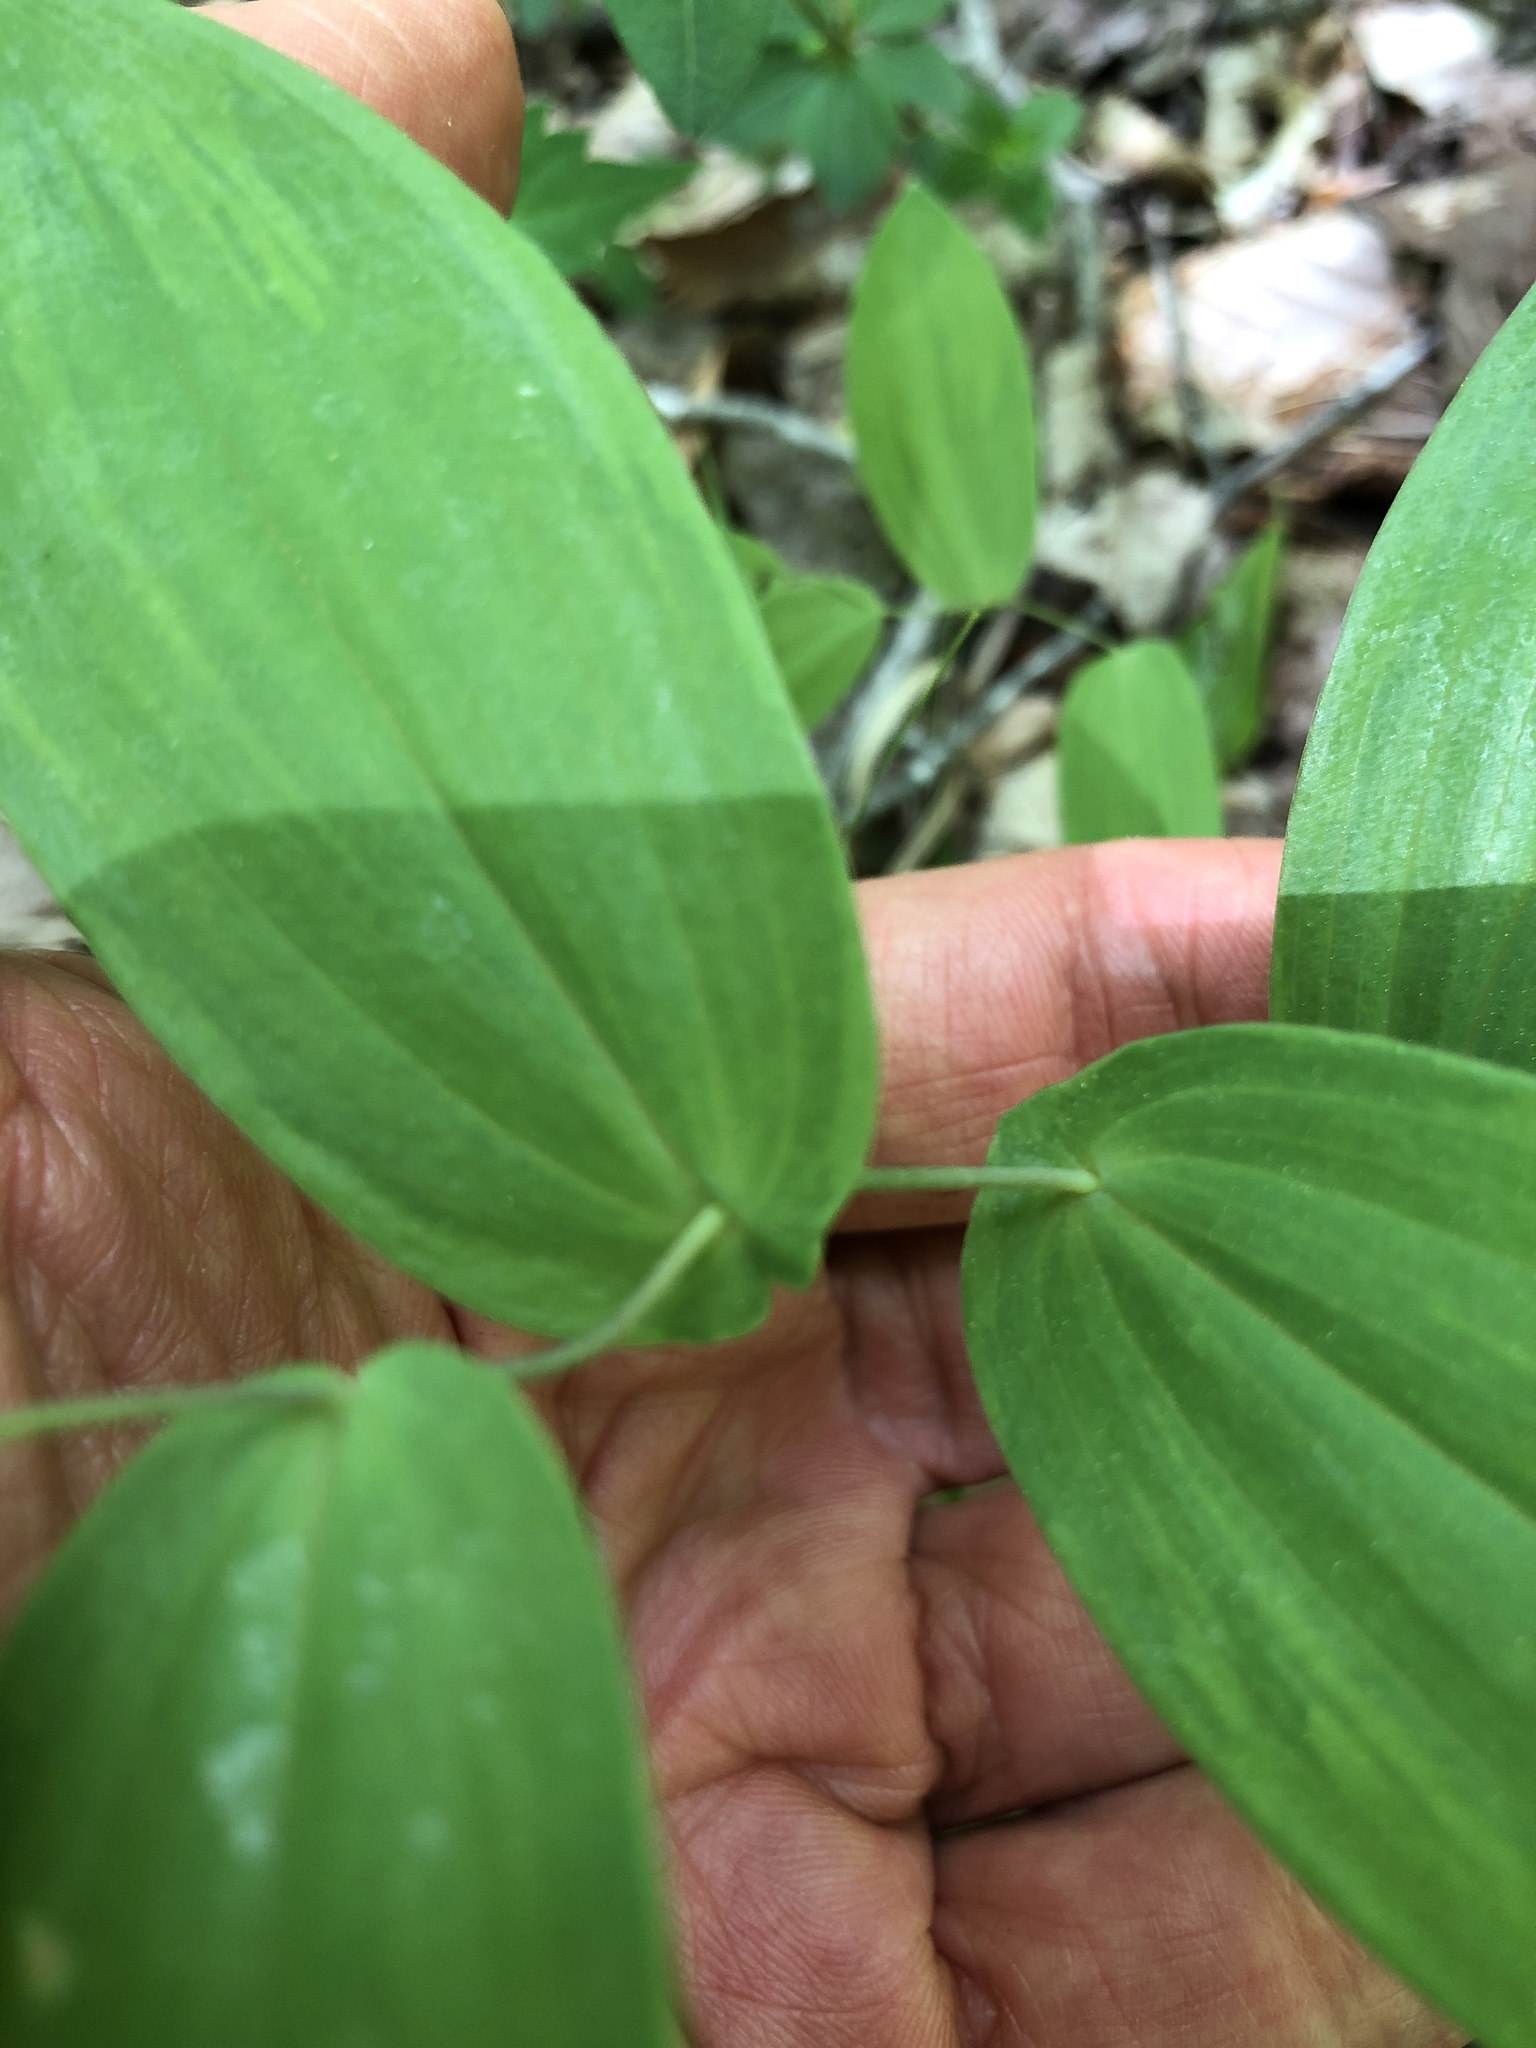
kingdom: Plantae
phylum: Tracheophyta
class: Liliopsida
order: Liliales
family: Colchicaceae
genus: Uvularia
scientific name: Uvularia perfoliata
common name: Perfoliate bellwort
